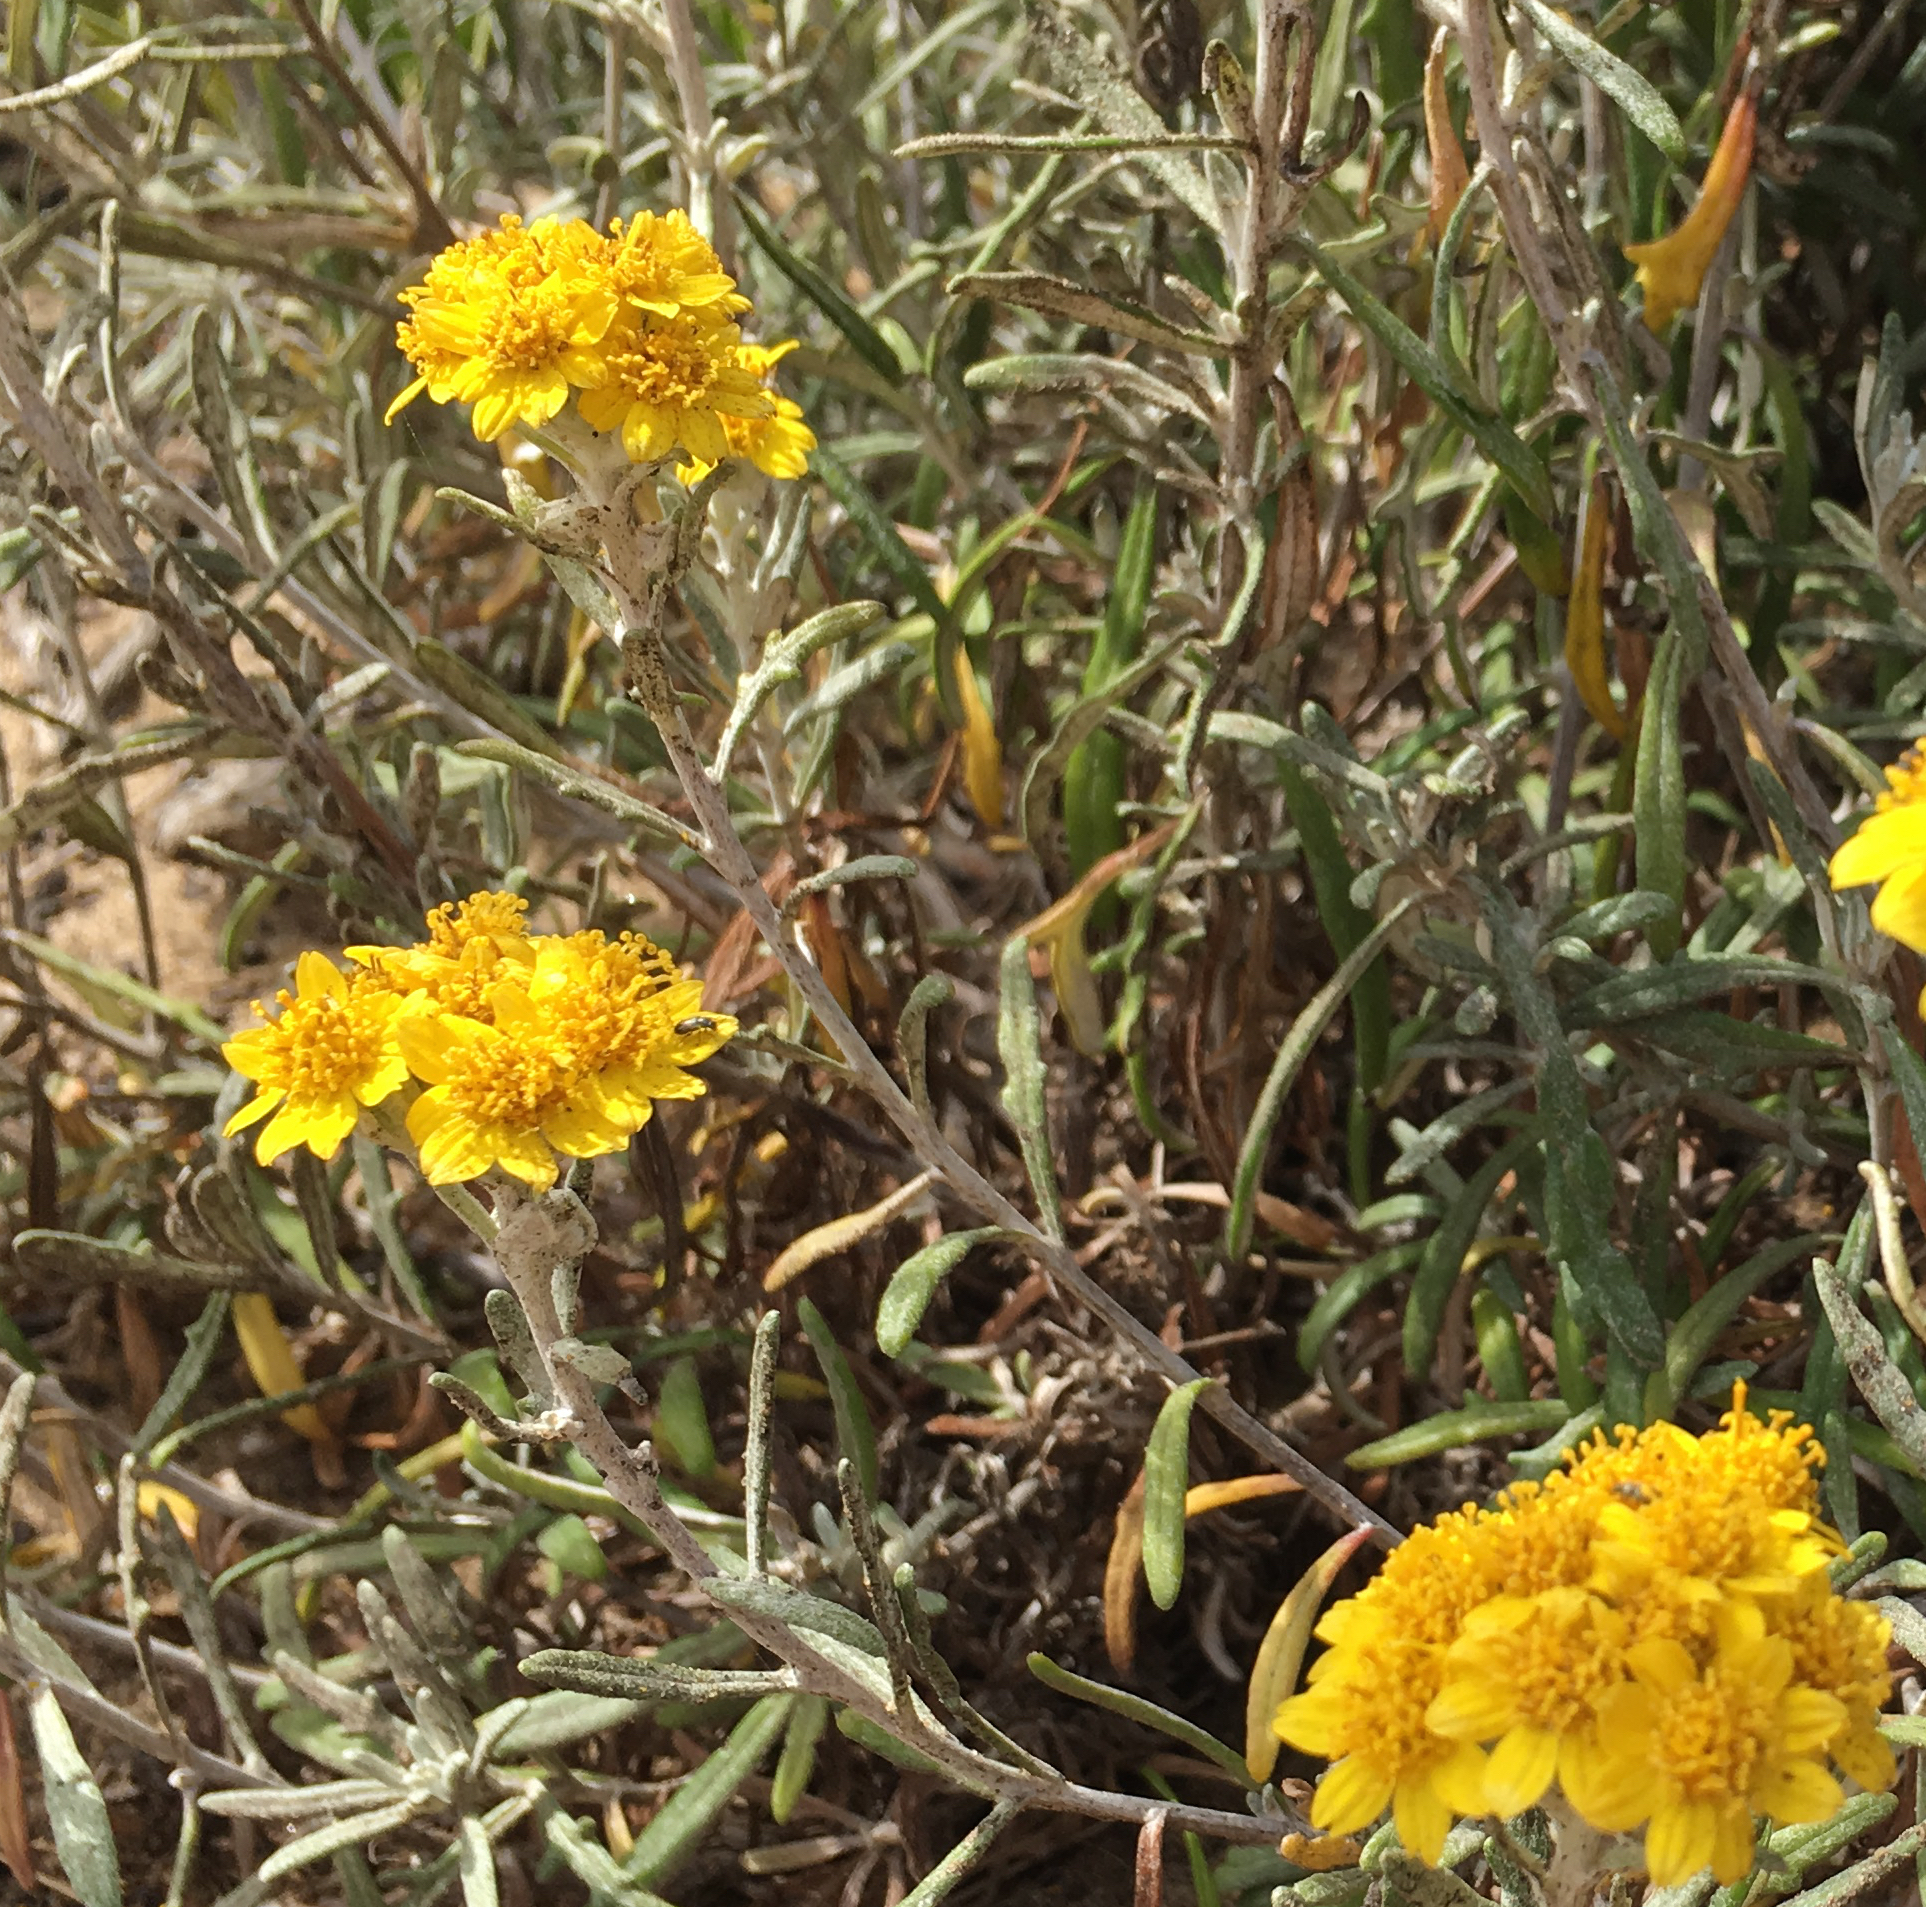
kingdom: Plantae
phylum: Tracheophyta
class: Magnoliopsida
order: Asterales
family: Asteraceae
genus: Eriophyllum
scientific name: Eriophyllum staechadifolium
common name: Lizardtail
